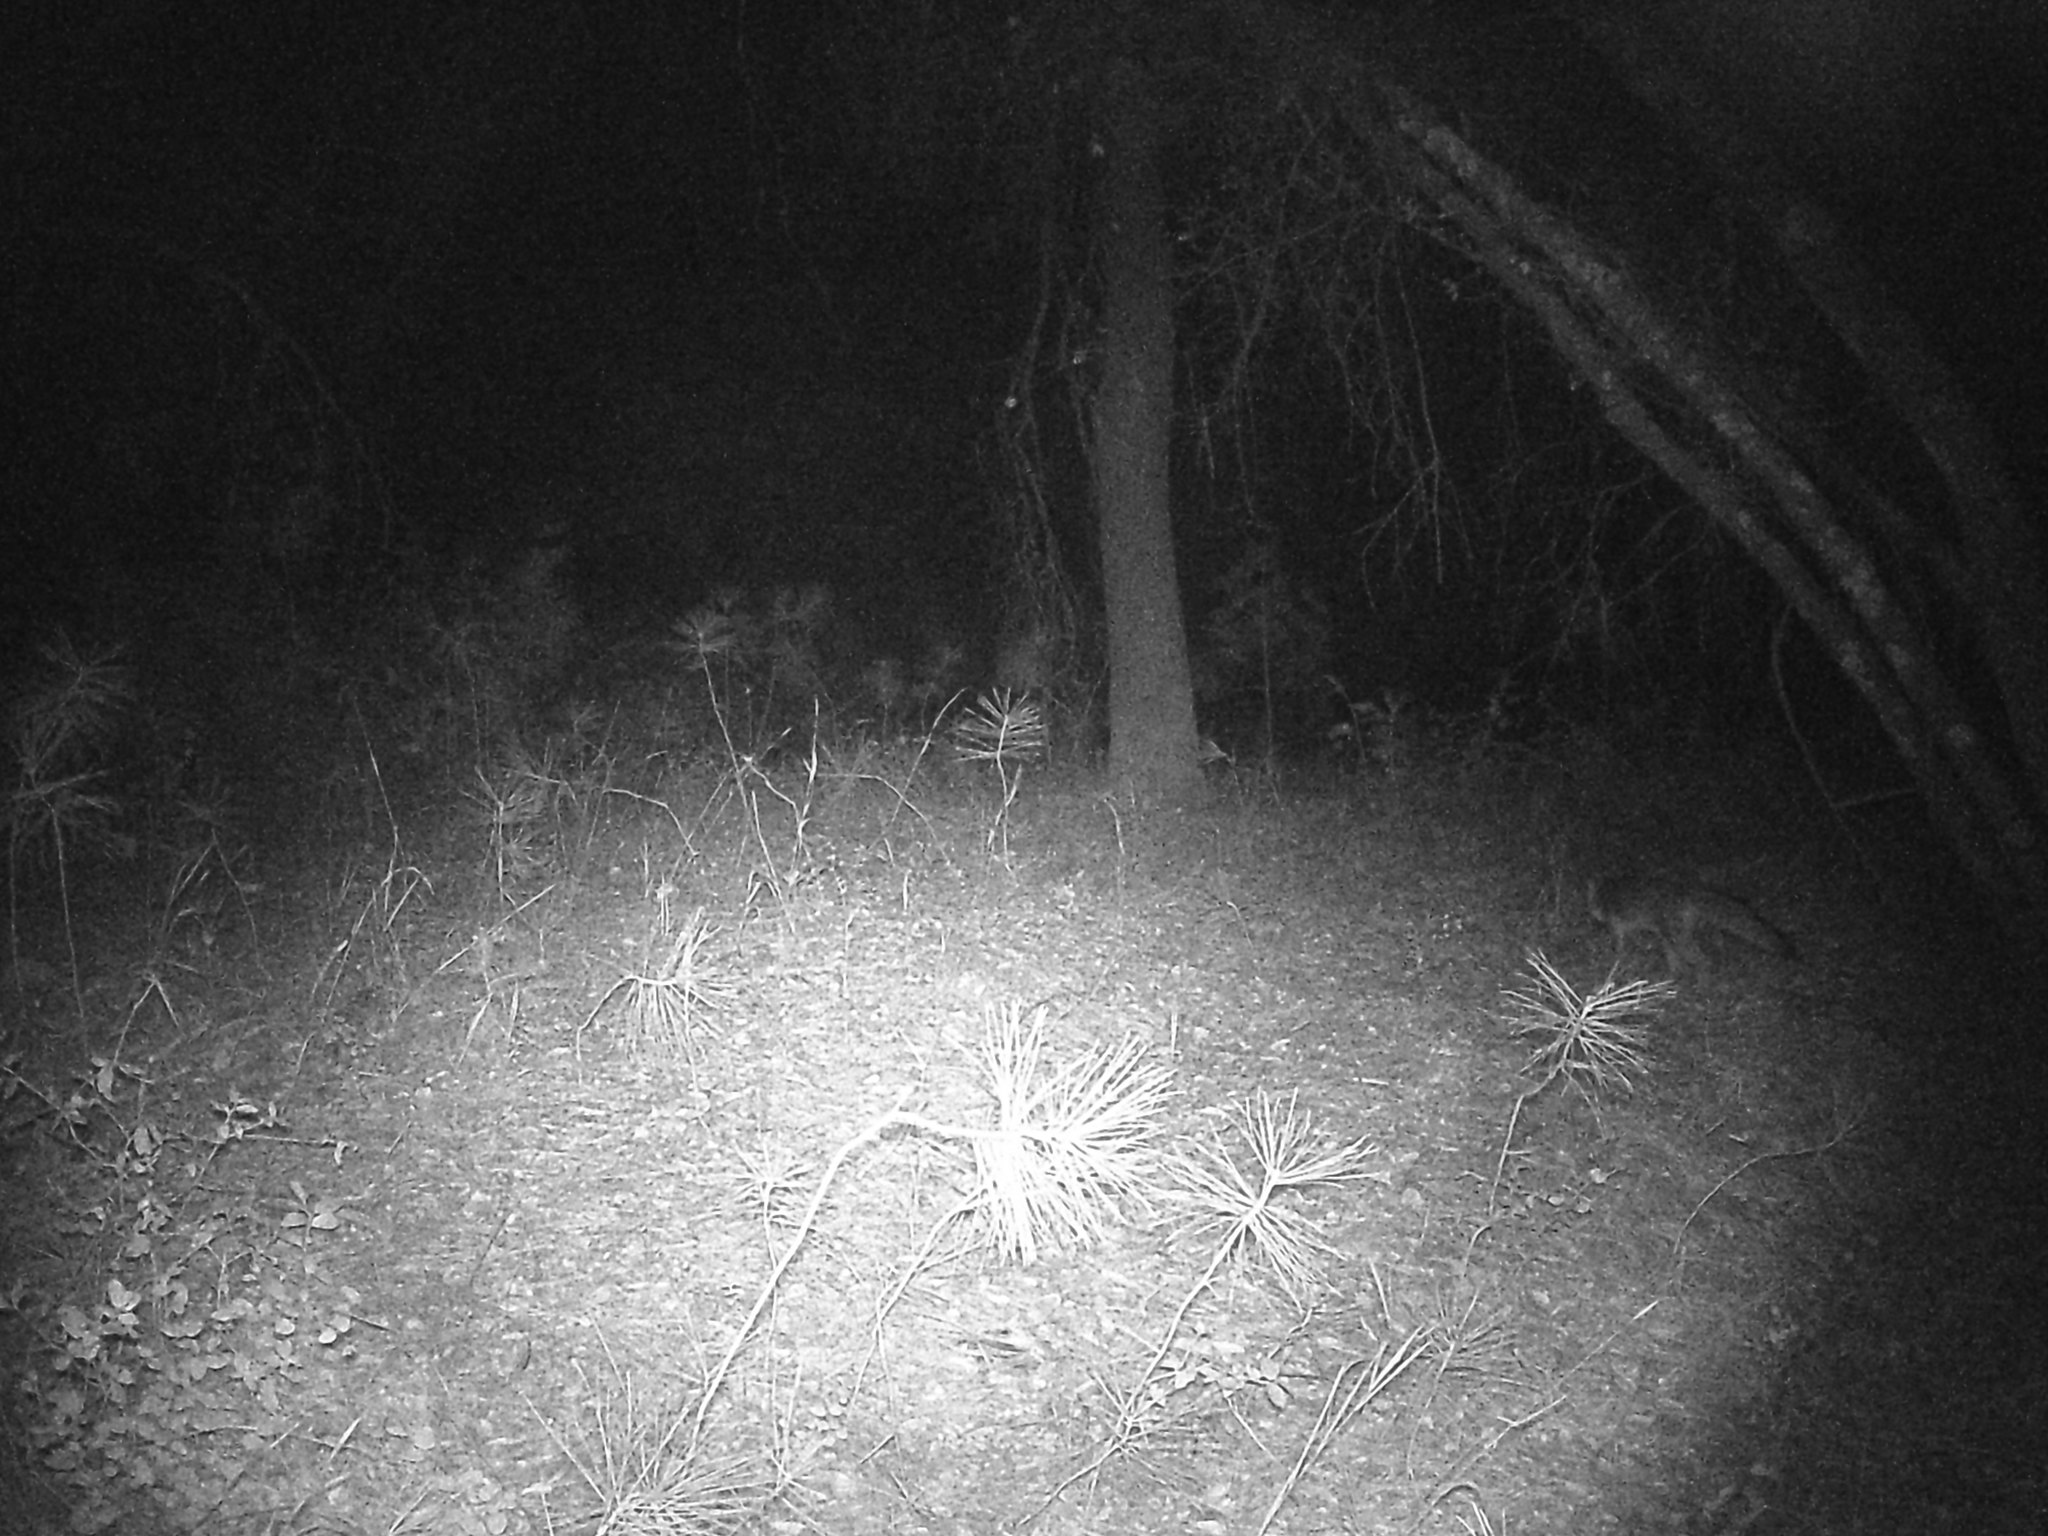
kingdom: Animalia
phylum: Chordata
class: Mammalia
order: Carnivora
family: Canidae
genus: Urocyon
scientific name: Urocyon cinereoargenteus
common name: Gray fox
